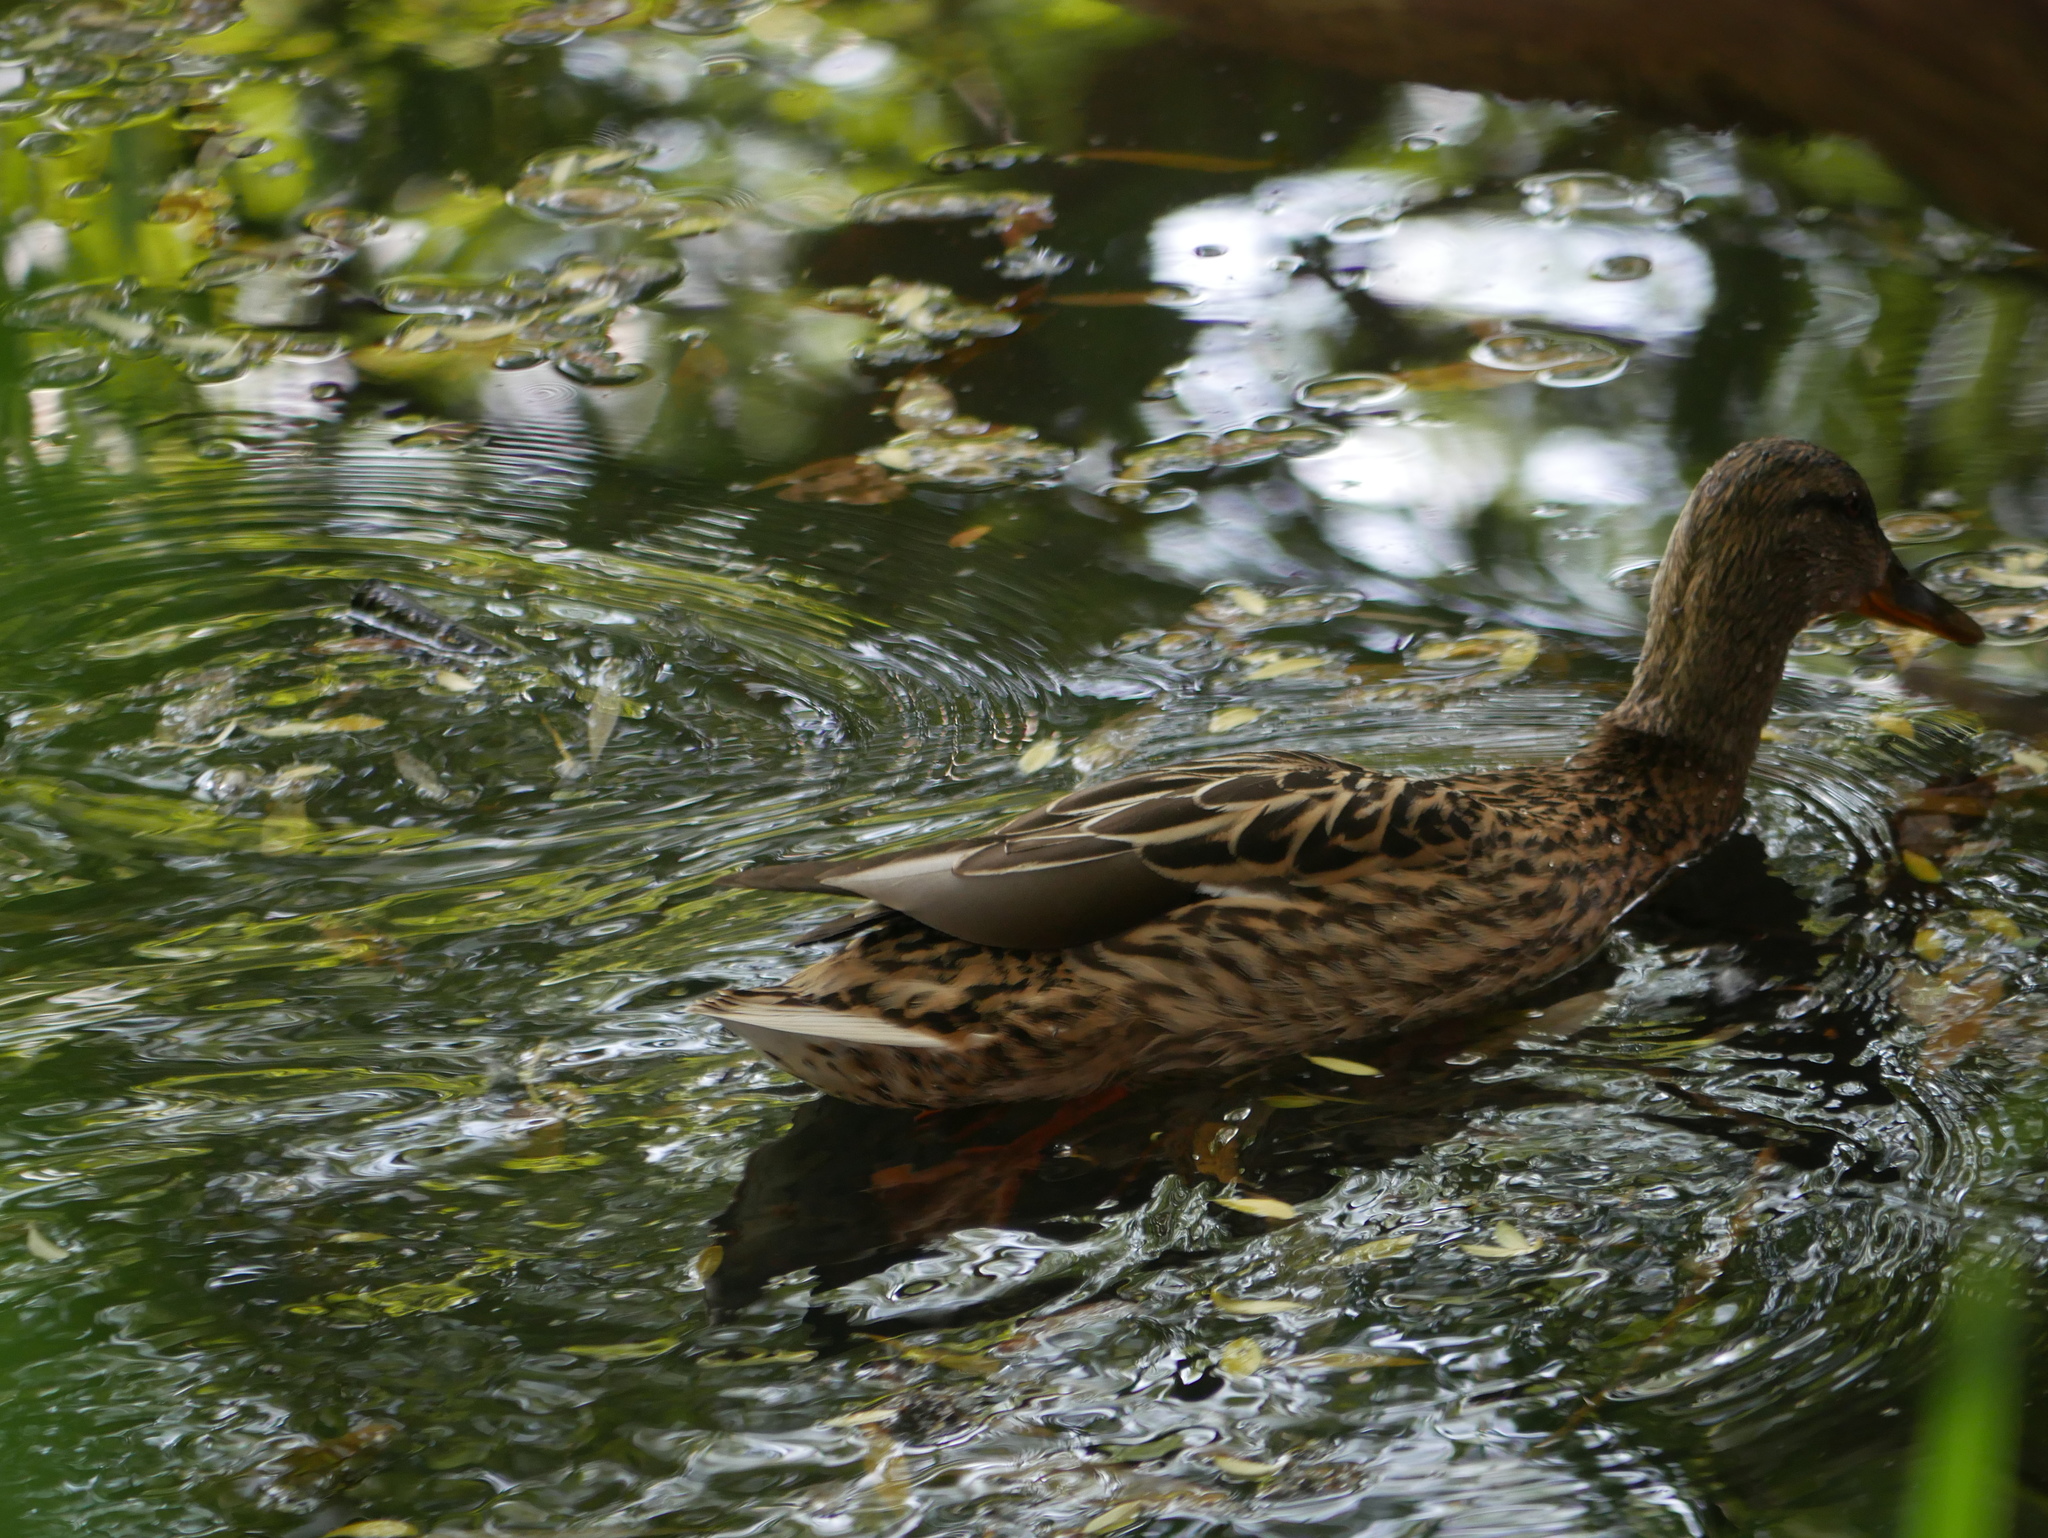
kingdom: Animalia
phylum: Chordata
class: Aves
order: Anseriformes
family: Anatidae
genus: Anas
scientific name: Anas platyrhynchos
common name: Mallard
